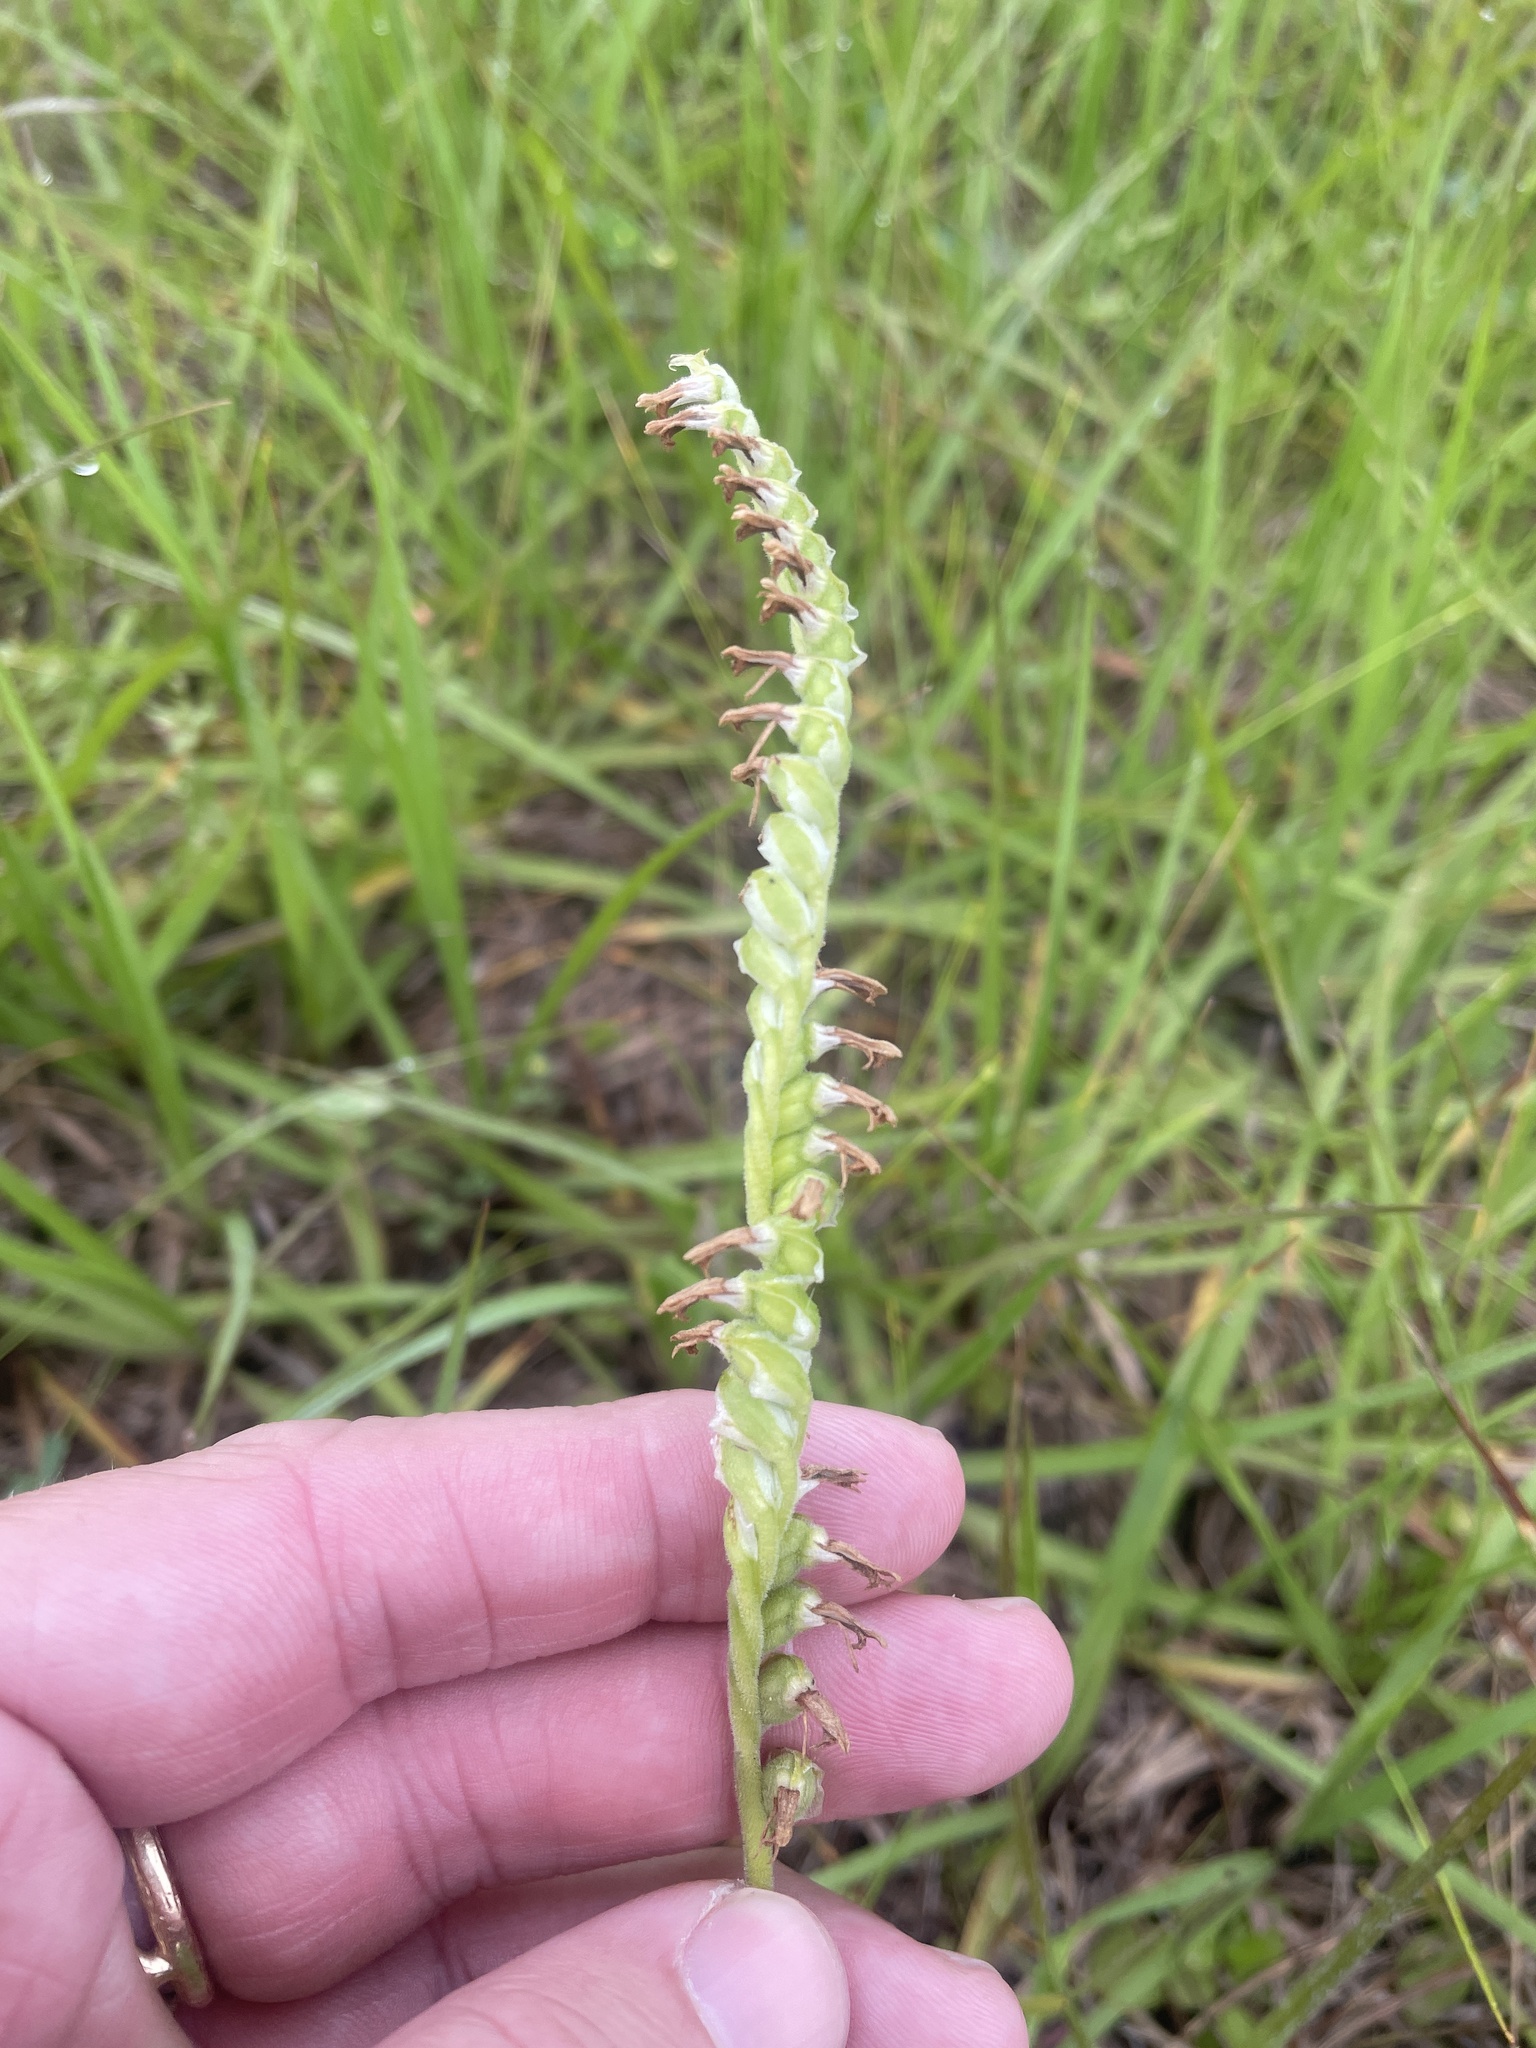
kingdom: Plantae
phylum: Tracheophyta
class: Liliopsida
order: Asparagales
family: Orchidaceae
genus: Spiranthes
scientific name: Spiranthes vernalis
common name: Spring ladies'-tresses
